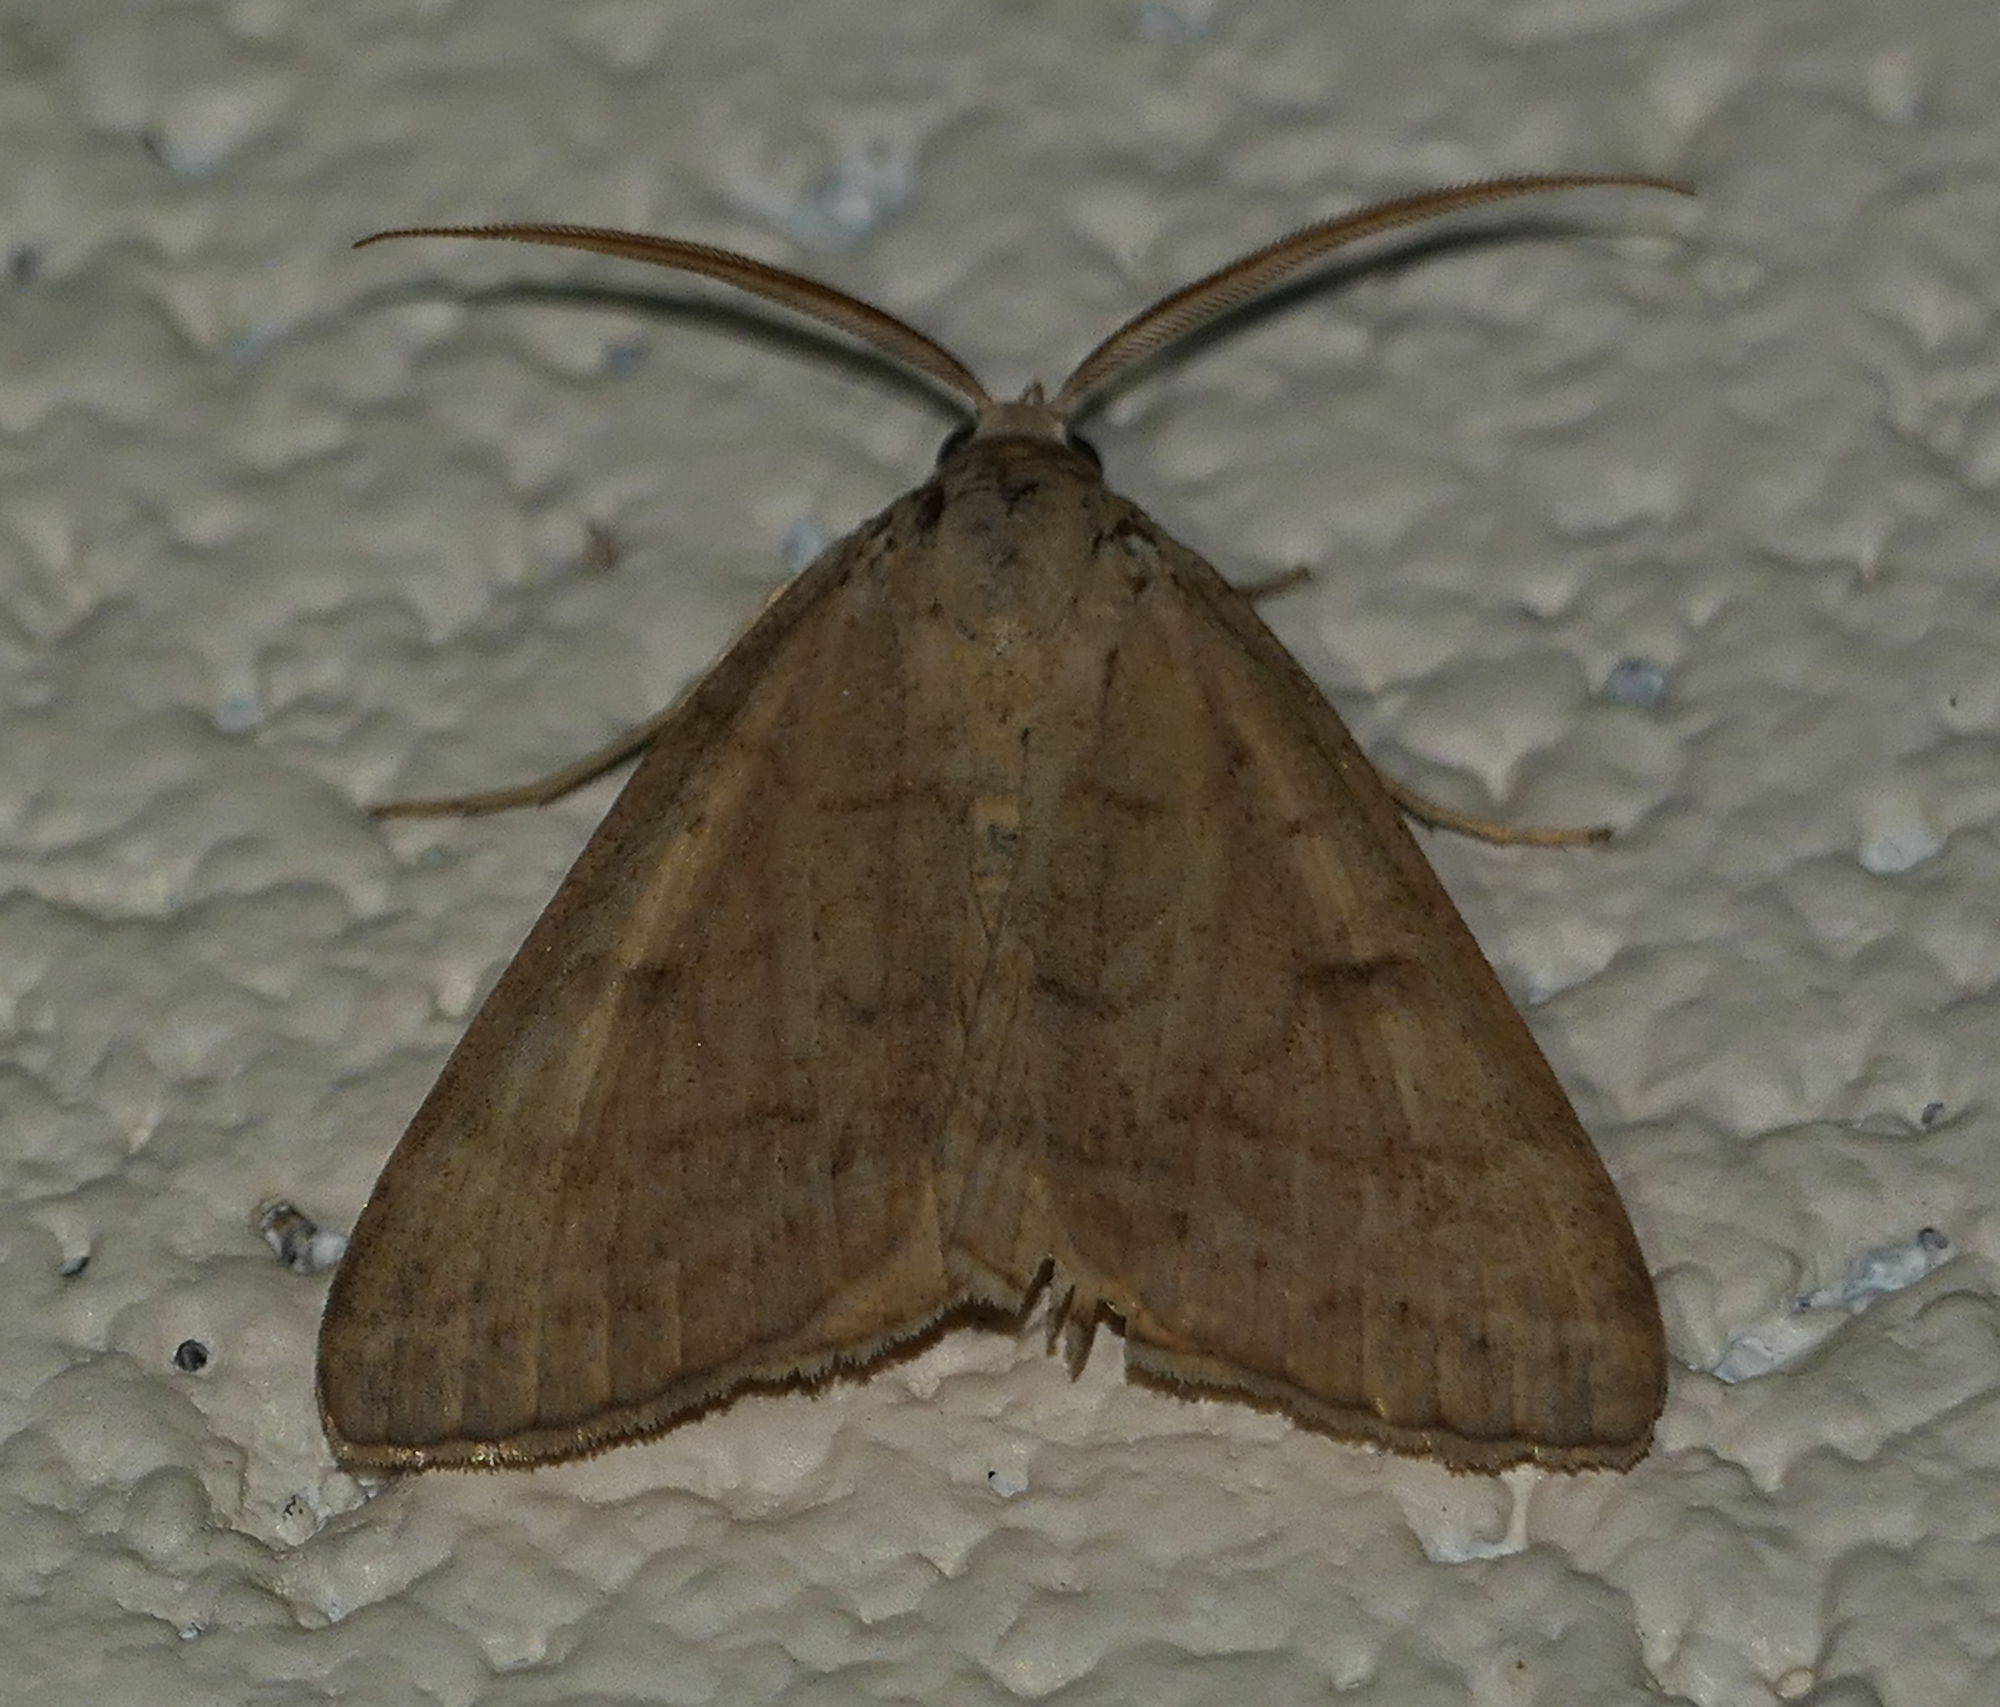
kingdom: Animalia
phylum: Arthropoda
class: Insecta
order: Lepidoptera
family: Erebidae
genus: Caenurgia
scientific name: Caenurgia chloropha
